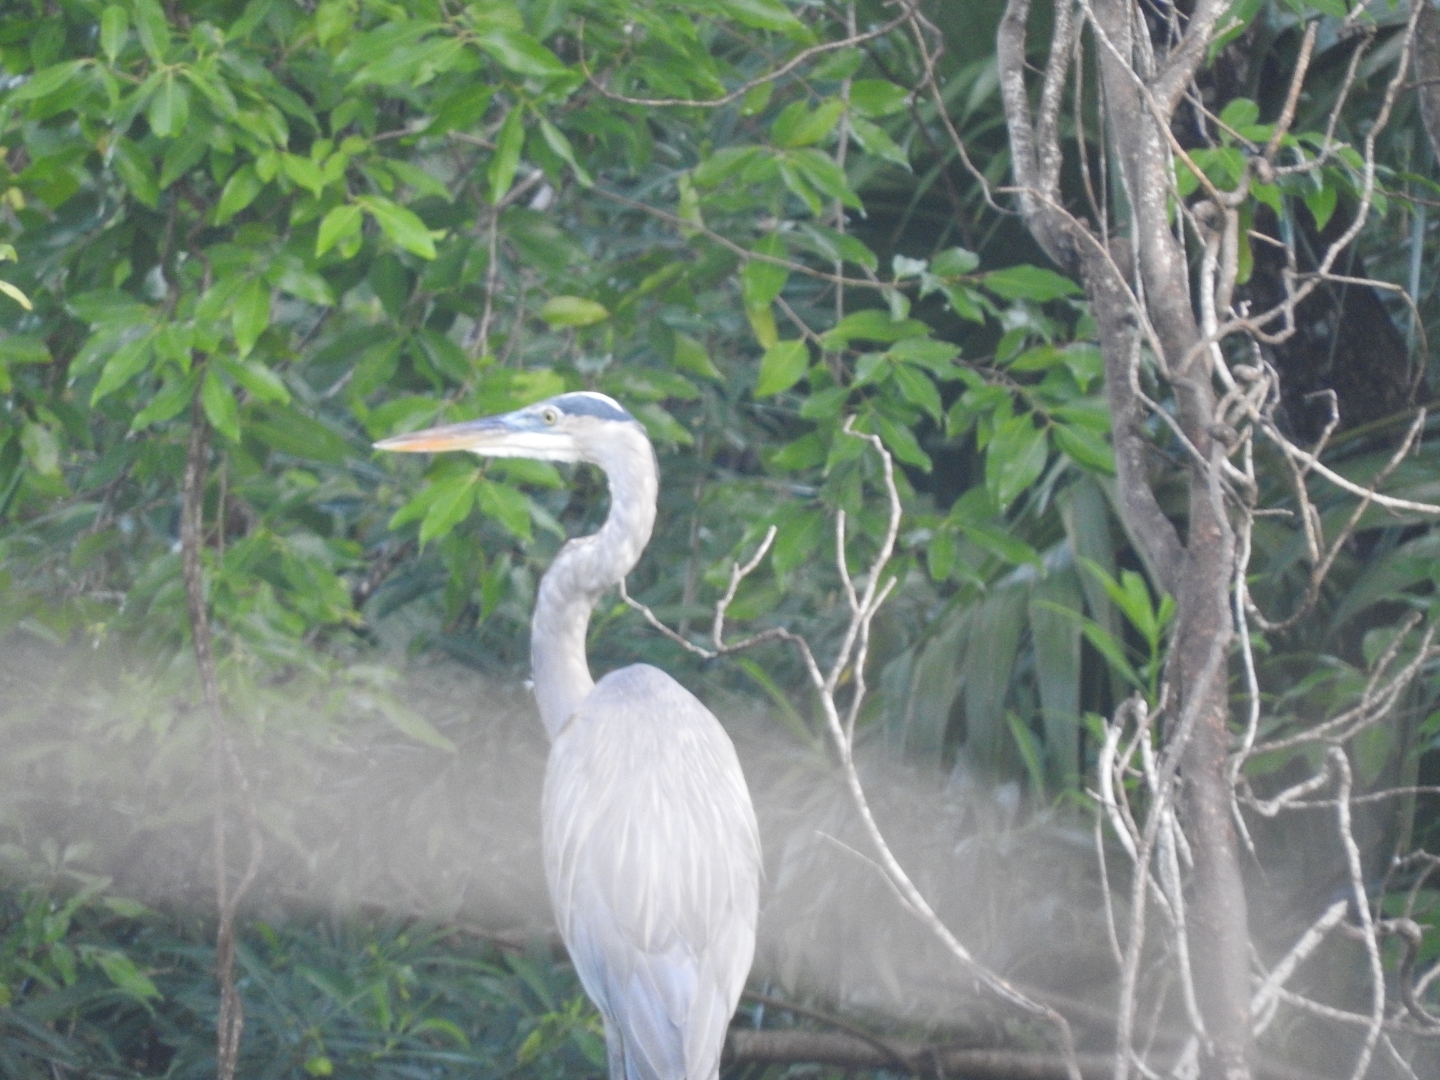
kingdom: Animalia
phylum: Chordata
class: Aves
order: Pelecaniformes
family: Ardeidae
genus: Ardea
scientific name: Ardea herodias
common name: Great blue heron
